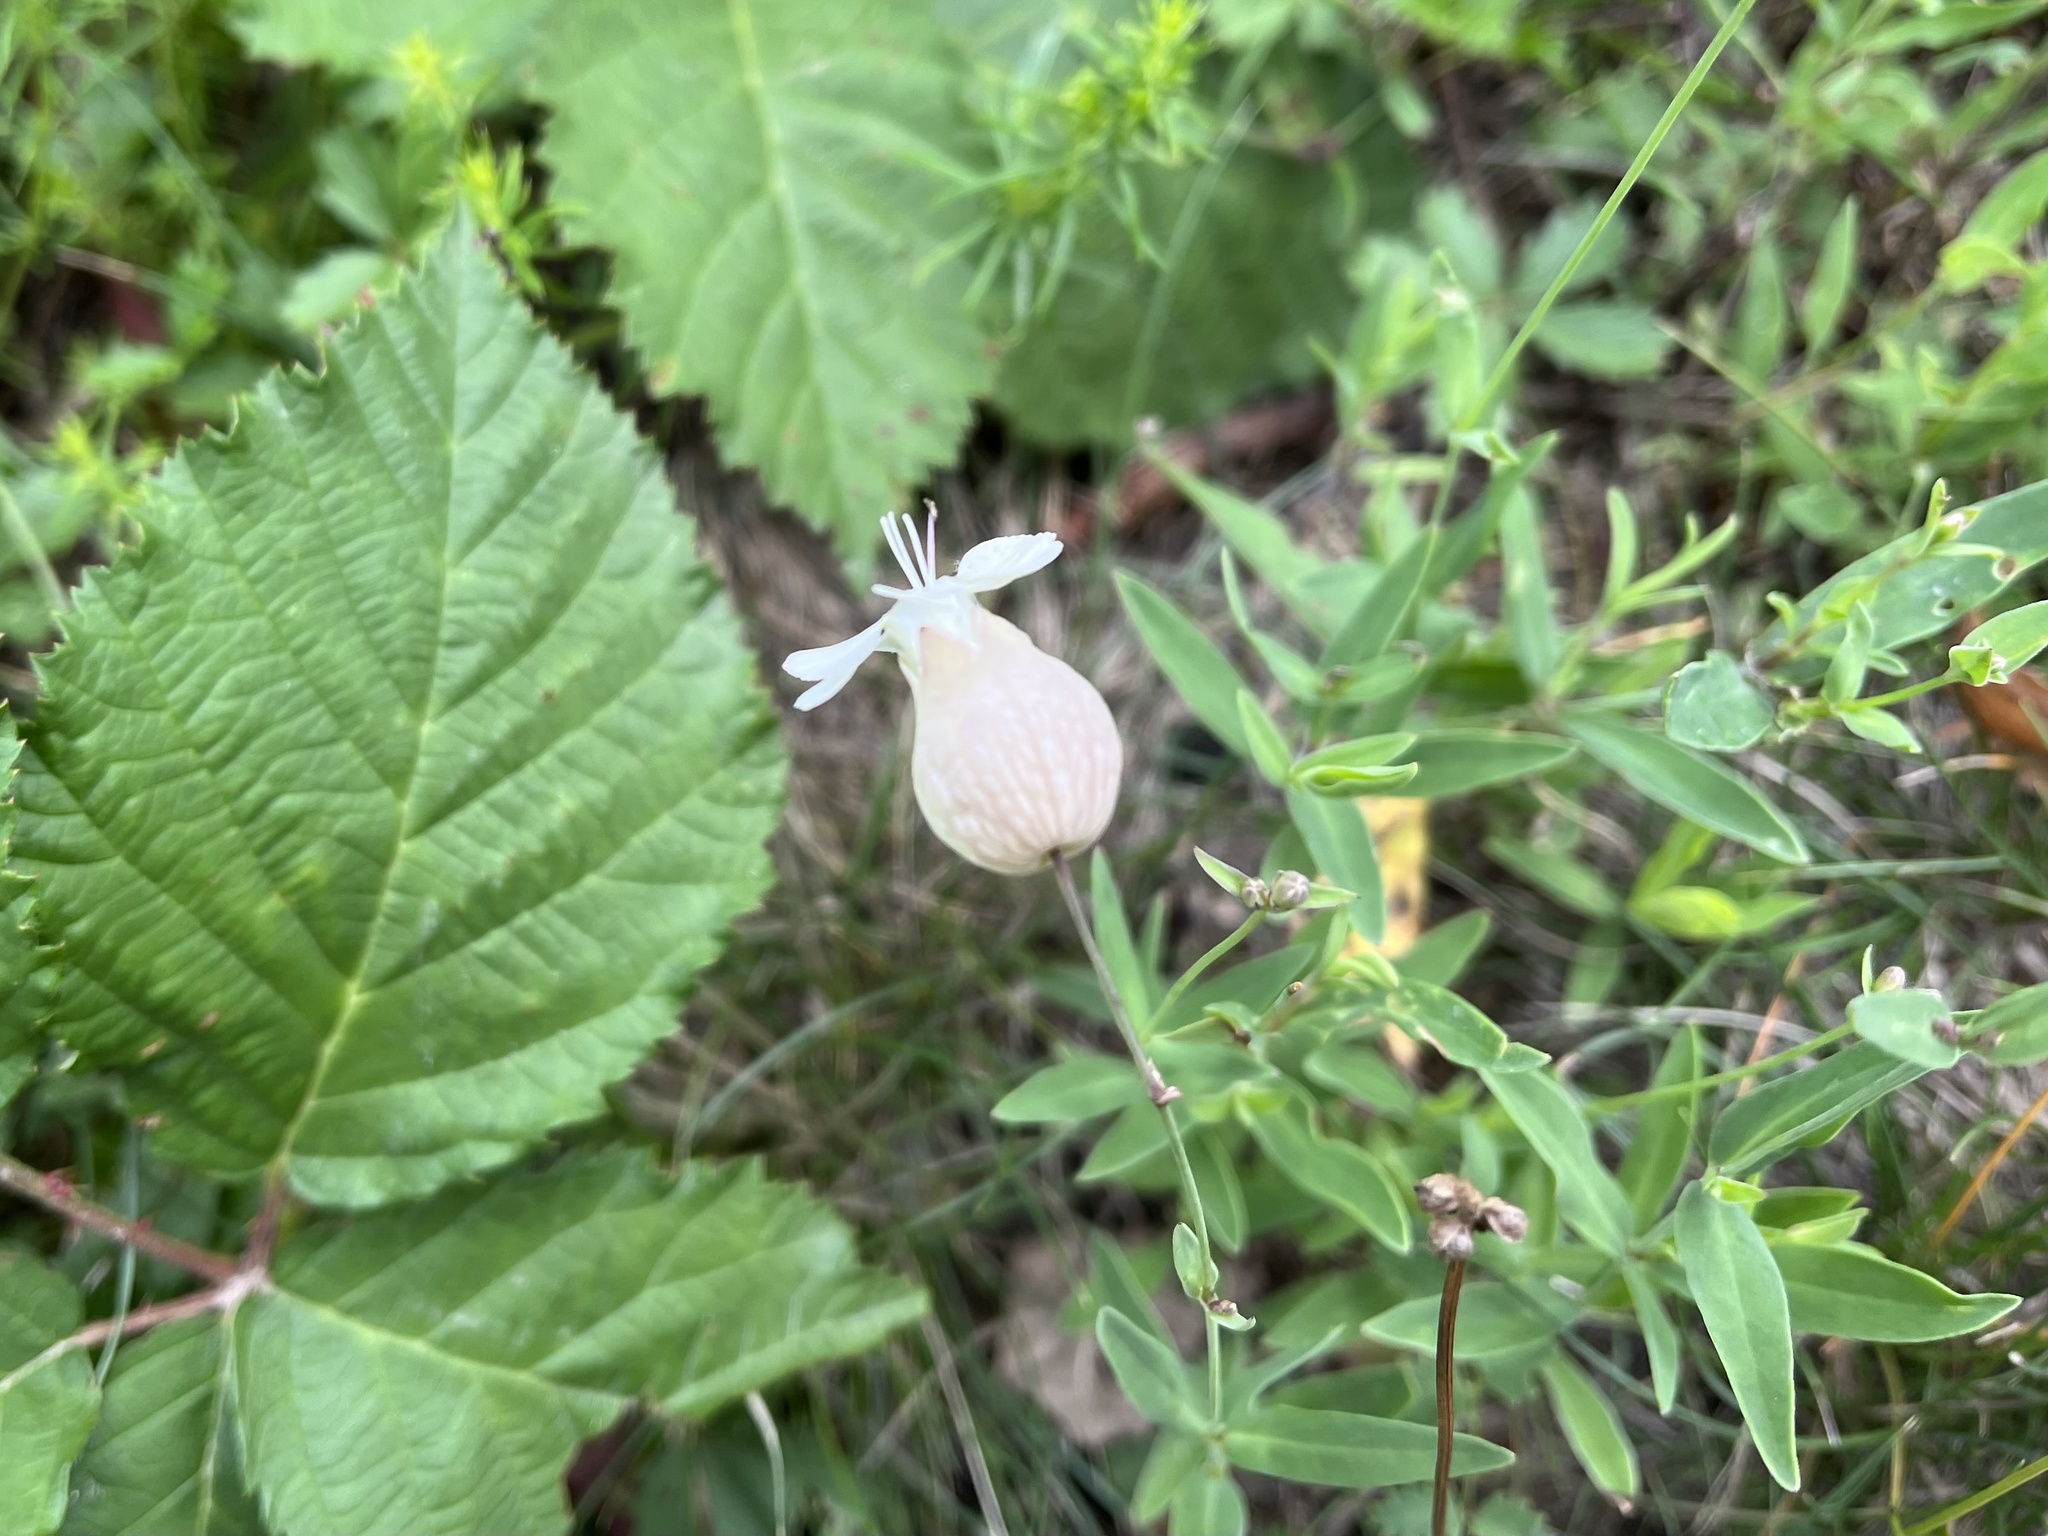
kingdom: Plantae
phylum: Tracheophyta
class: Magnoliopsida
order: Caryophyllales
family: Caryophyllaceae
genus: Silene
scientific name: Silene vulgaris
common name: Bladder campion
